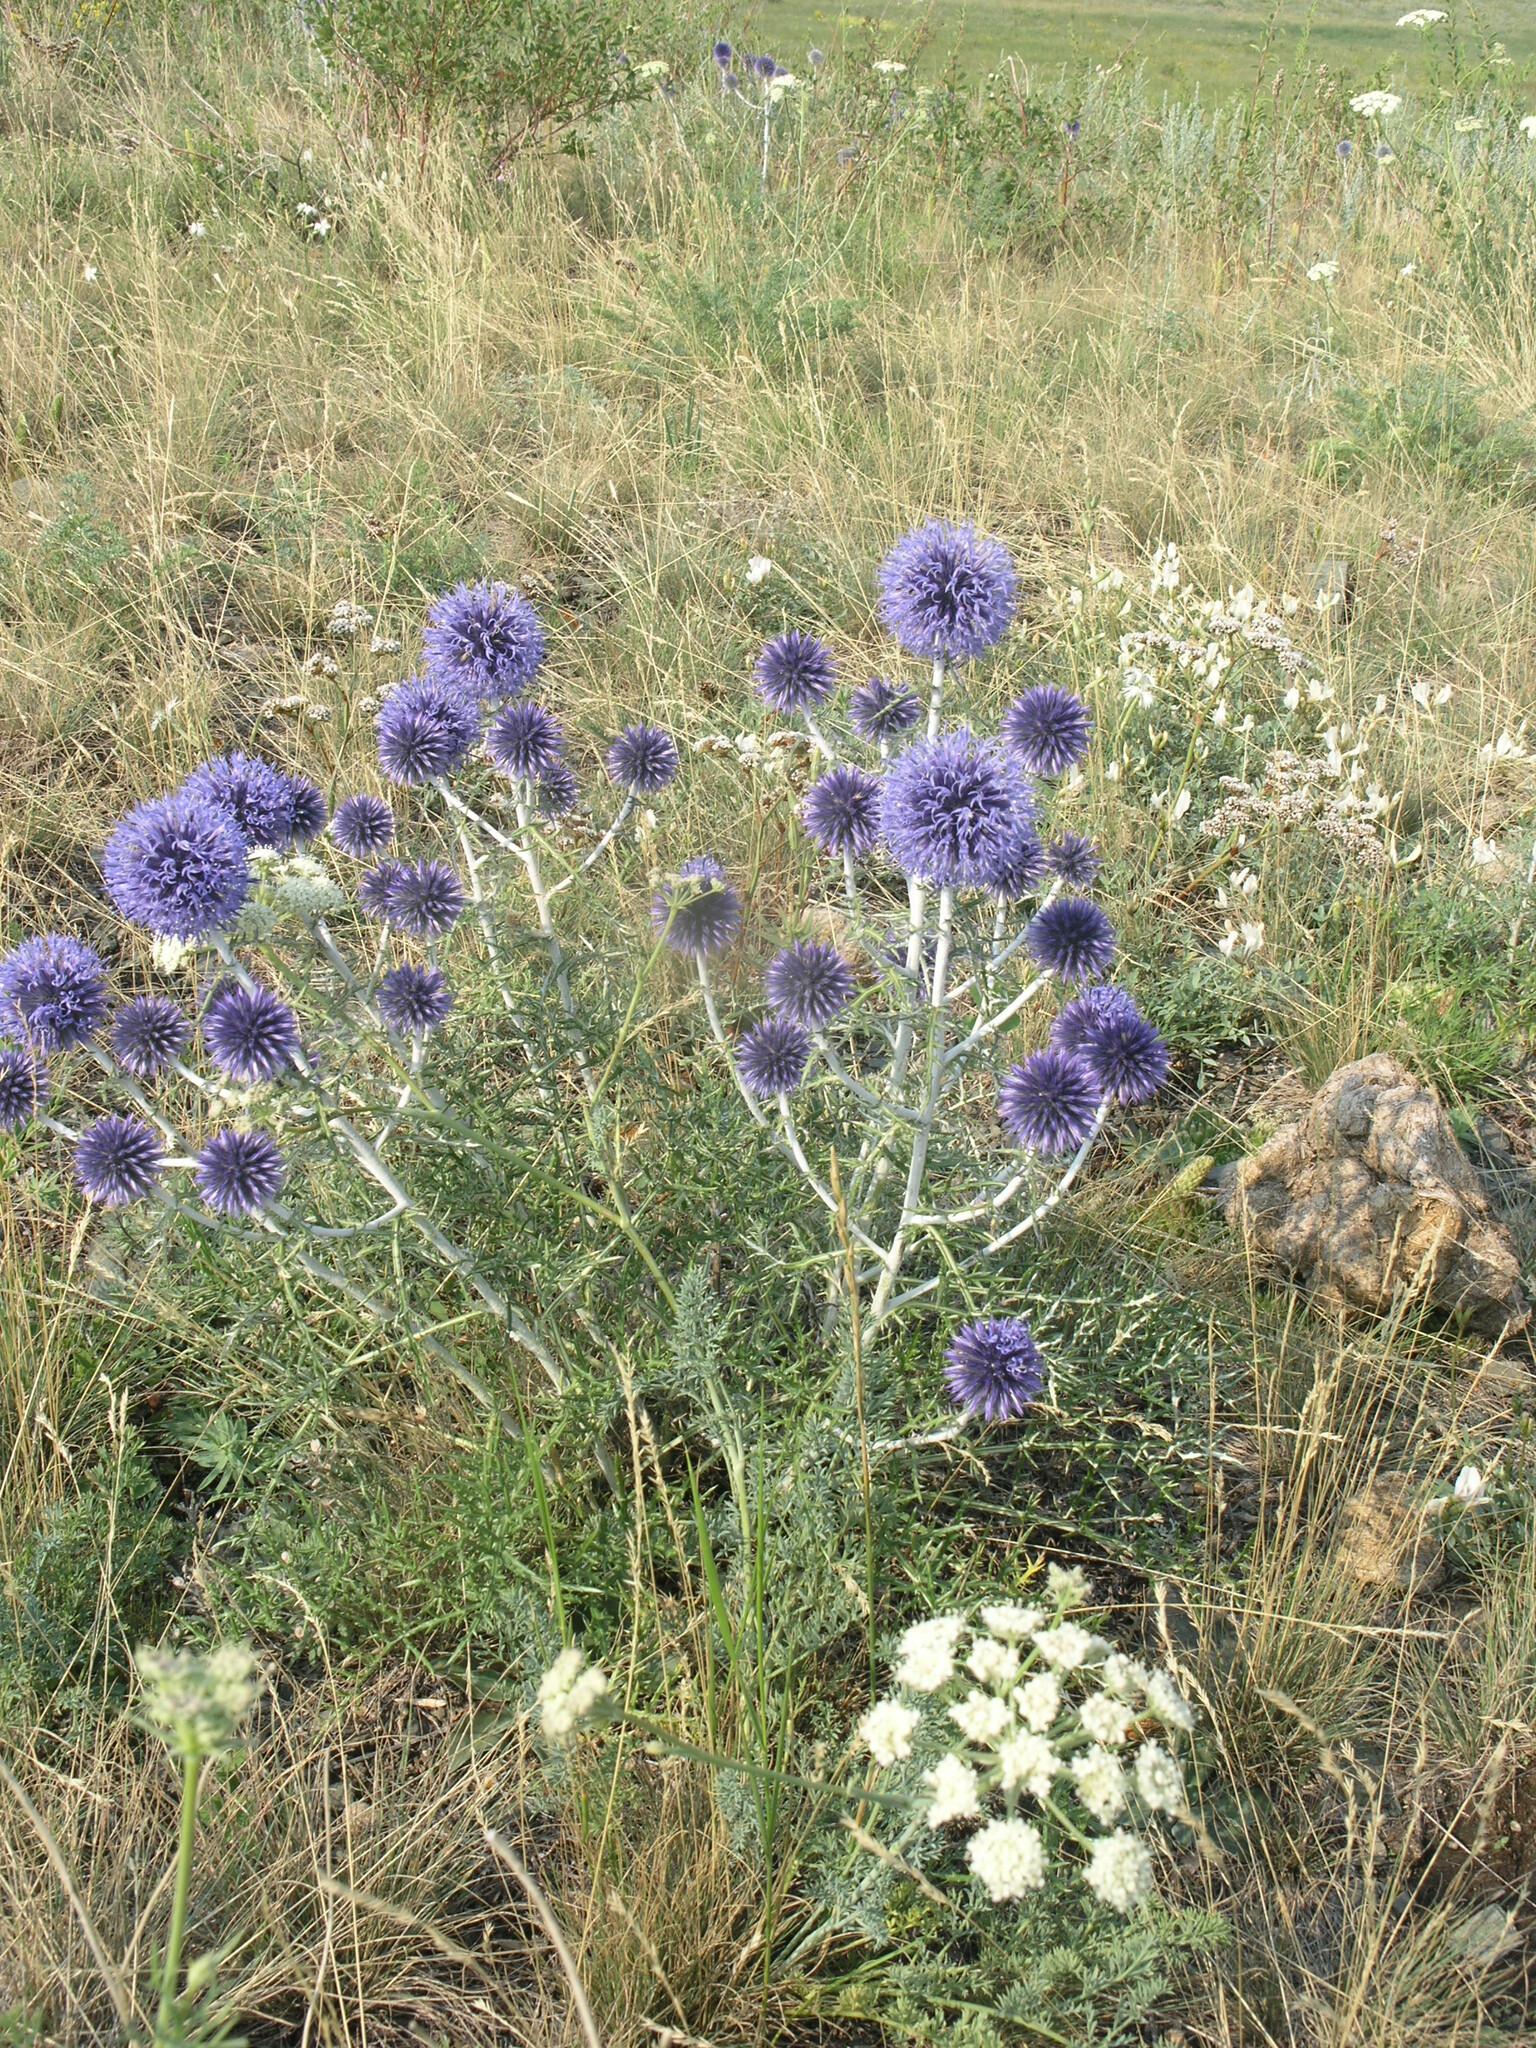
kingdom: Plantae
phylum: Tracheophyta
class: Magnoliopsida
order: Asterales
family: Asteraceae
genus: Echinops
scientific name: Echinops ritro
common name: Globe thistle
